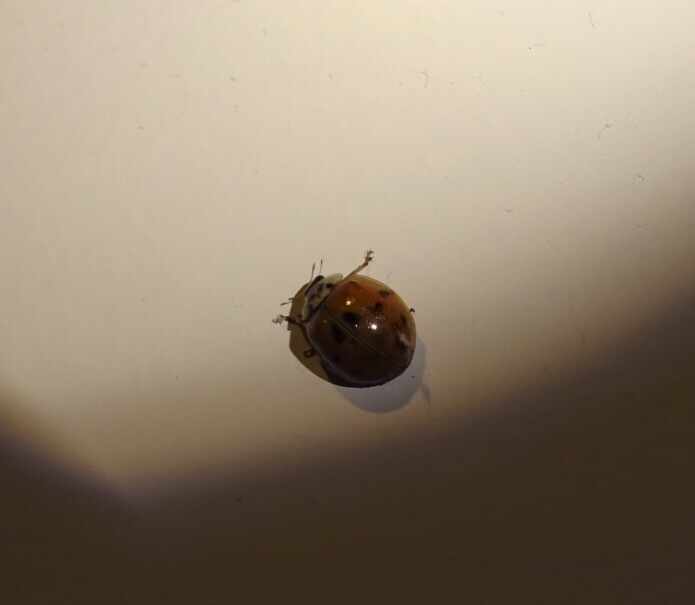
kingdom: Animalia
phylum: Arthropoda
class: Insecta
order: Coleoptera
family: Coccinellidae
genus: Harmonia
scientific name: Harmonia axyridis
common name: Harlequin ladybird
